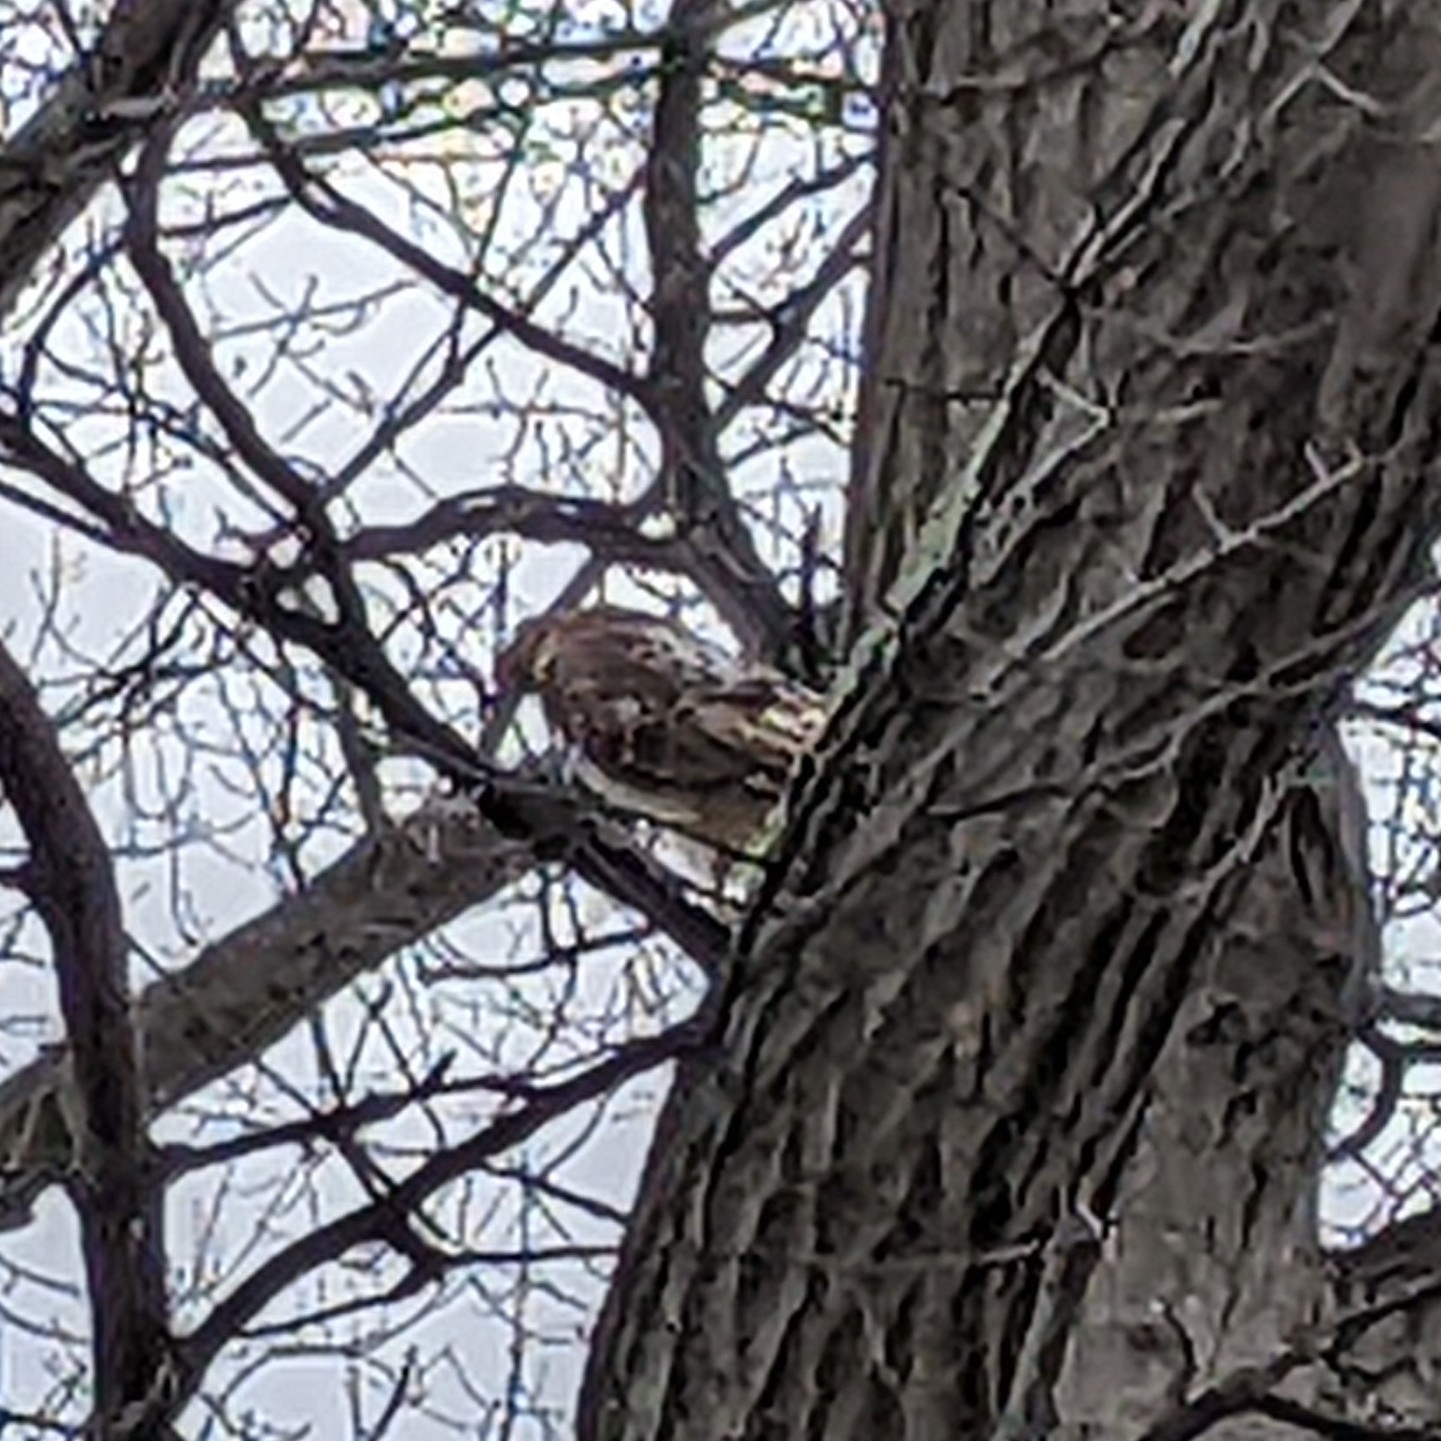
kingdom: Animalia
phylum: Chordata
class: Aves
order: Accipitriformes
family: Accipitridae
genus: Buteo
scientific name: Buteo jamaicensis
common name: Red-tailed hawk
